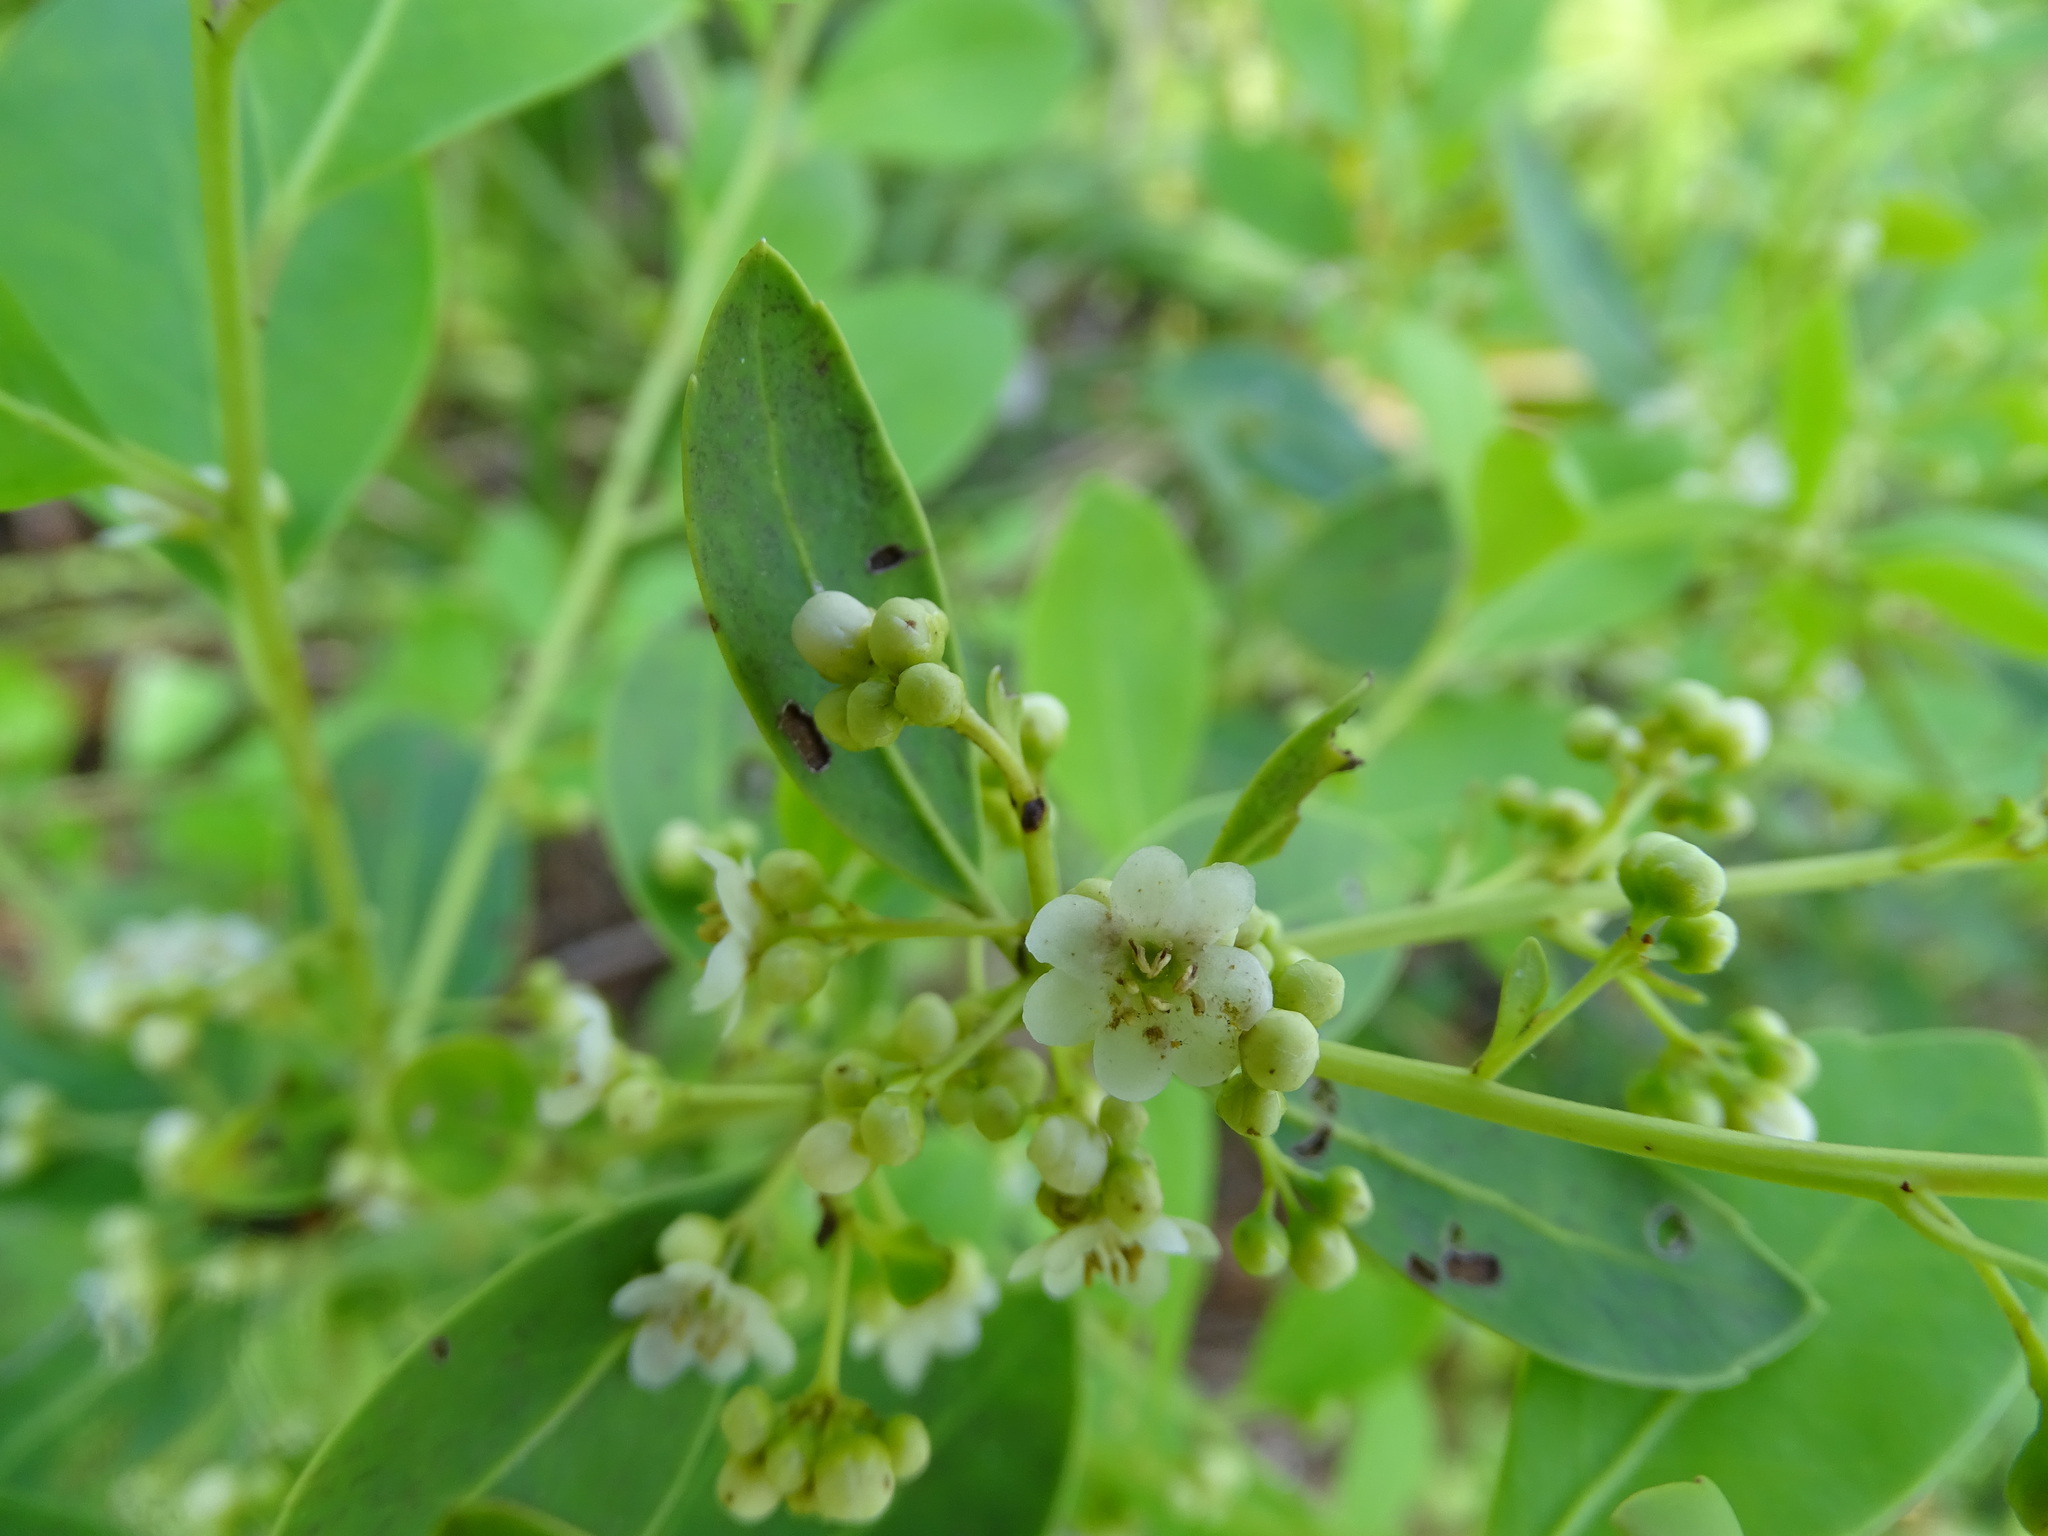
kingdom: Plantae
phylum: Tracheophyta
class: Magnoliopsida
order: Aquifoliales
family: Aquifoliaceae
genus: Ilex
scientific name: Ilex glabra
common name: Bitter gallberry
